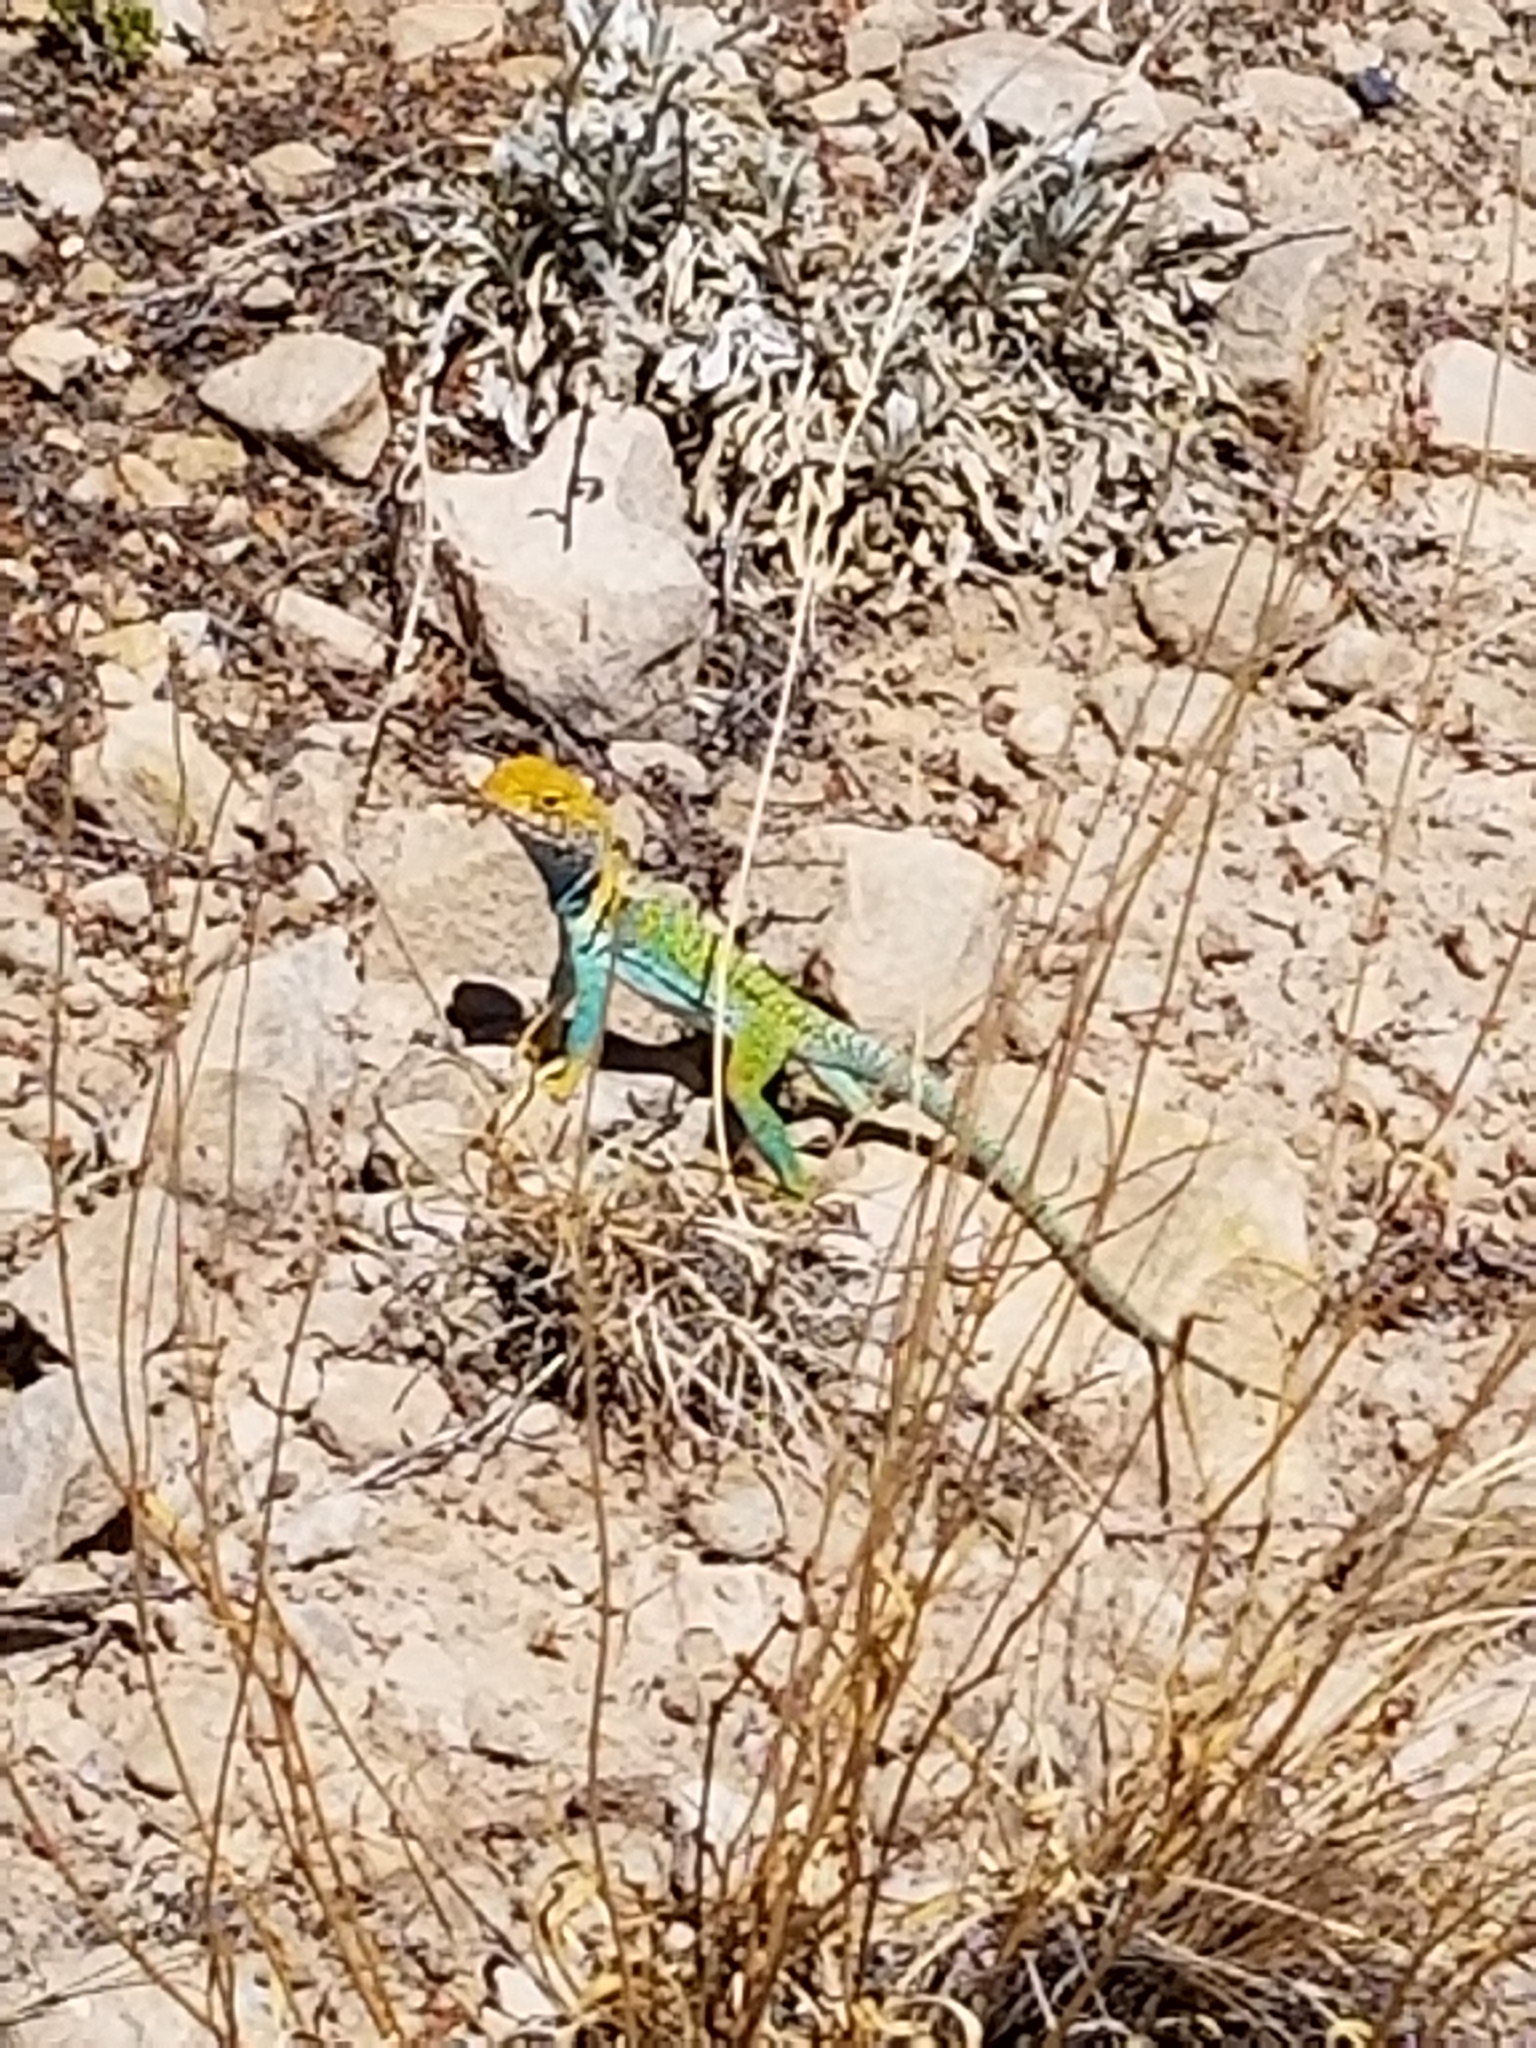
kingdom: Animalia
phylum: Chordata
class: Squamata
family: Crotaphytidae
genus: Crotaphytus
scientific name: Crotaphytus collaris
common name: Collared lizard
